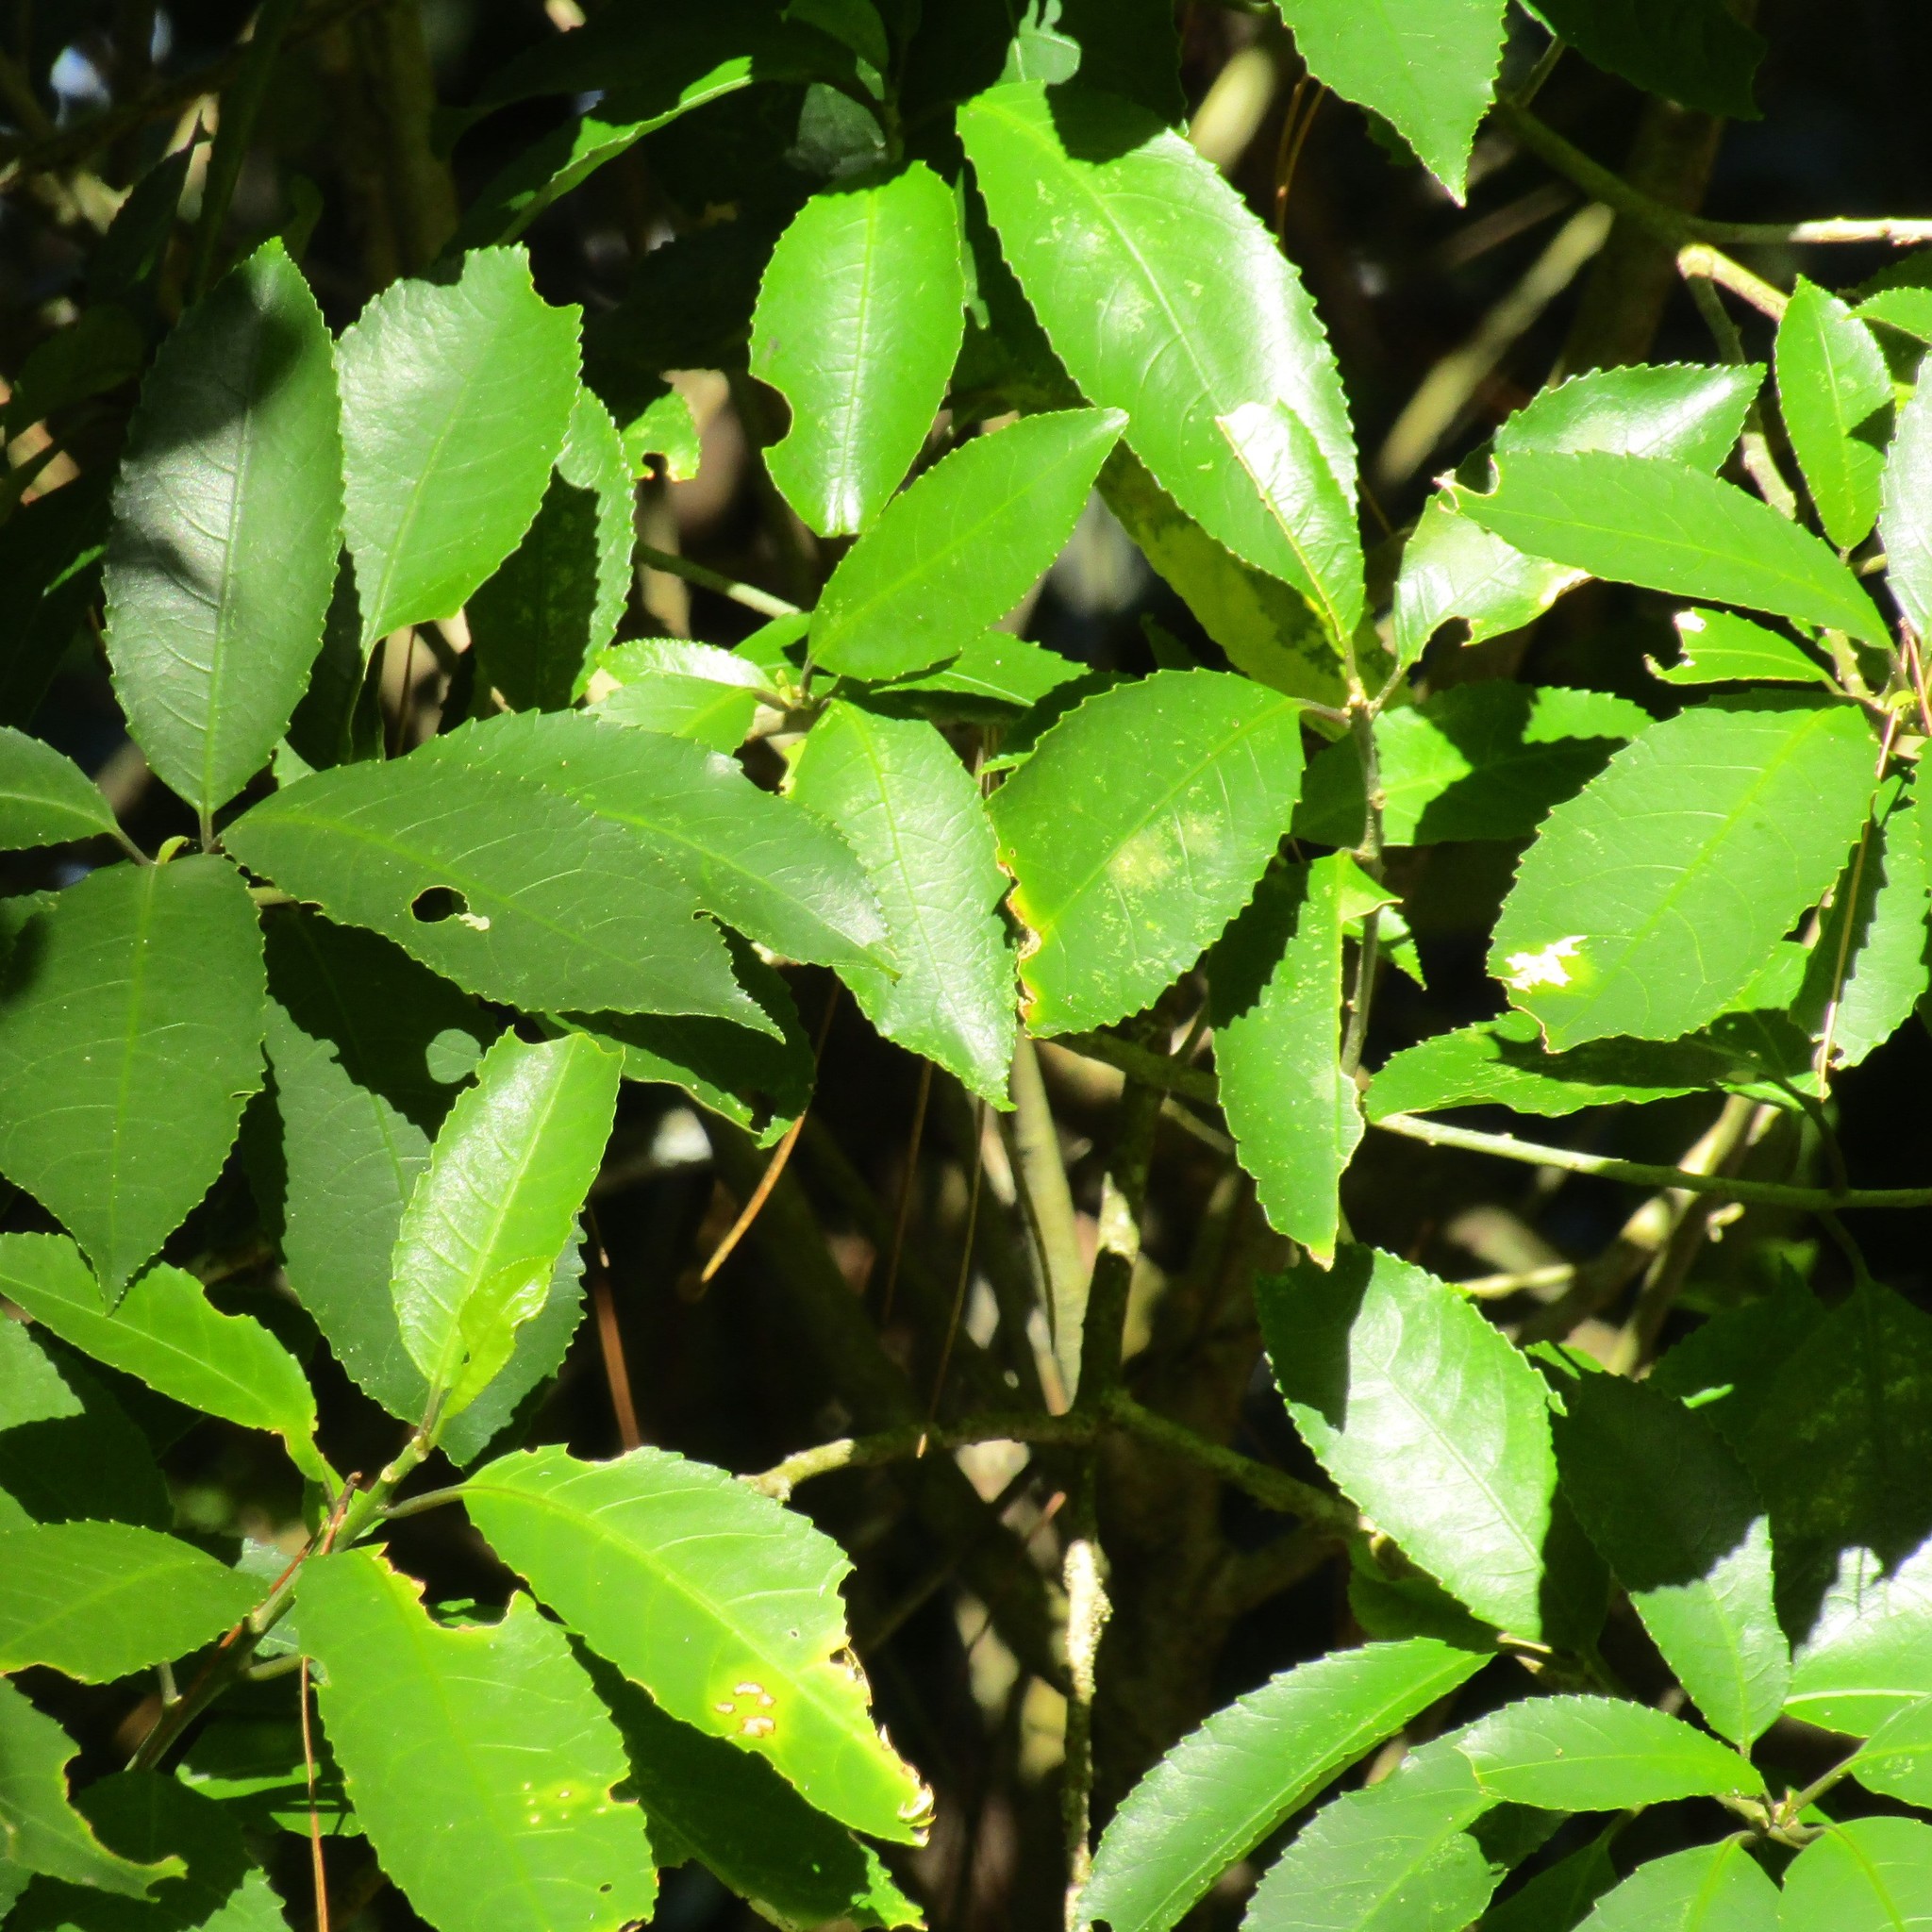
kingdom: Plantae
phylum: Tracheophyta
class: Magnoliopsida
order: Malpighiales
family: Violaceae
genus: Melicytus
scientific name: Melicytus ramiflorus
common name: Mahoe
